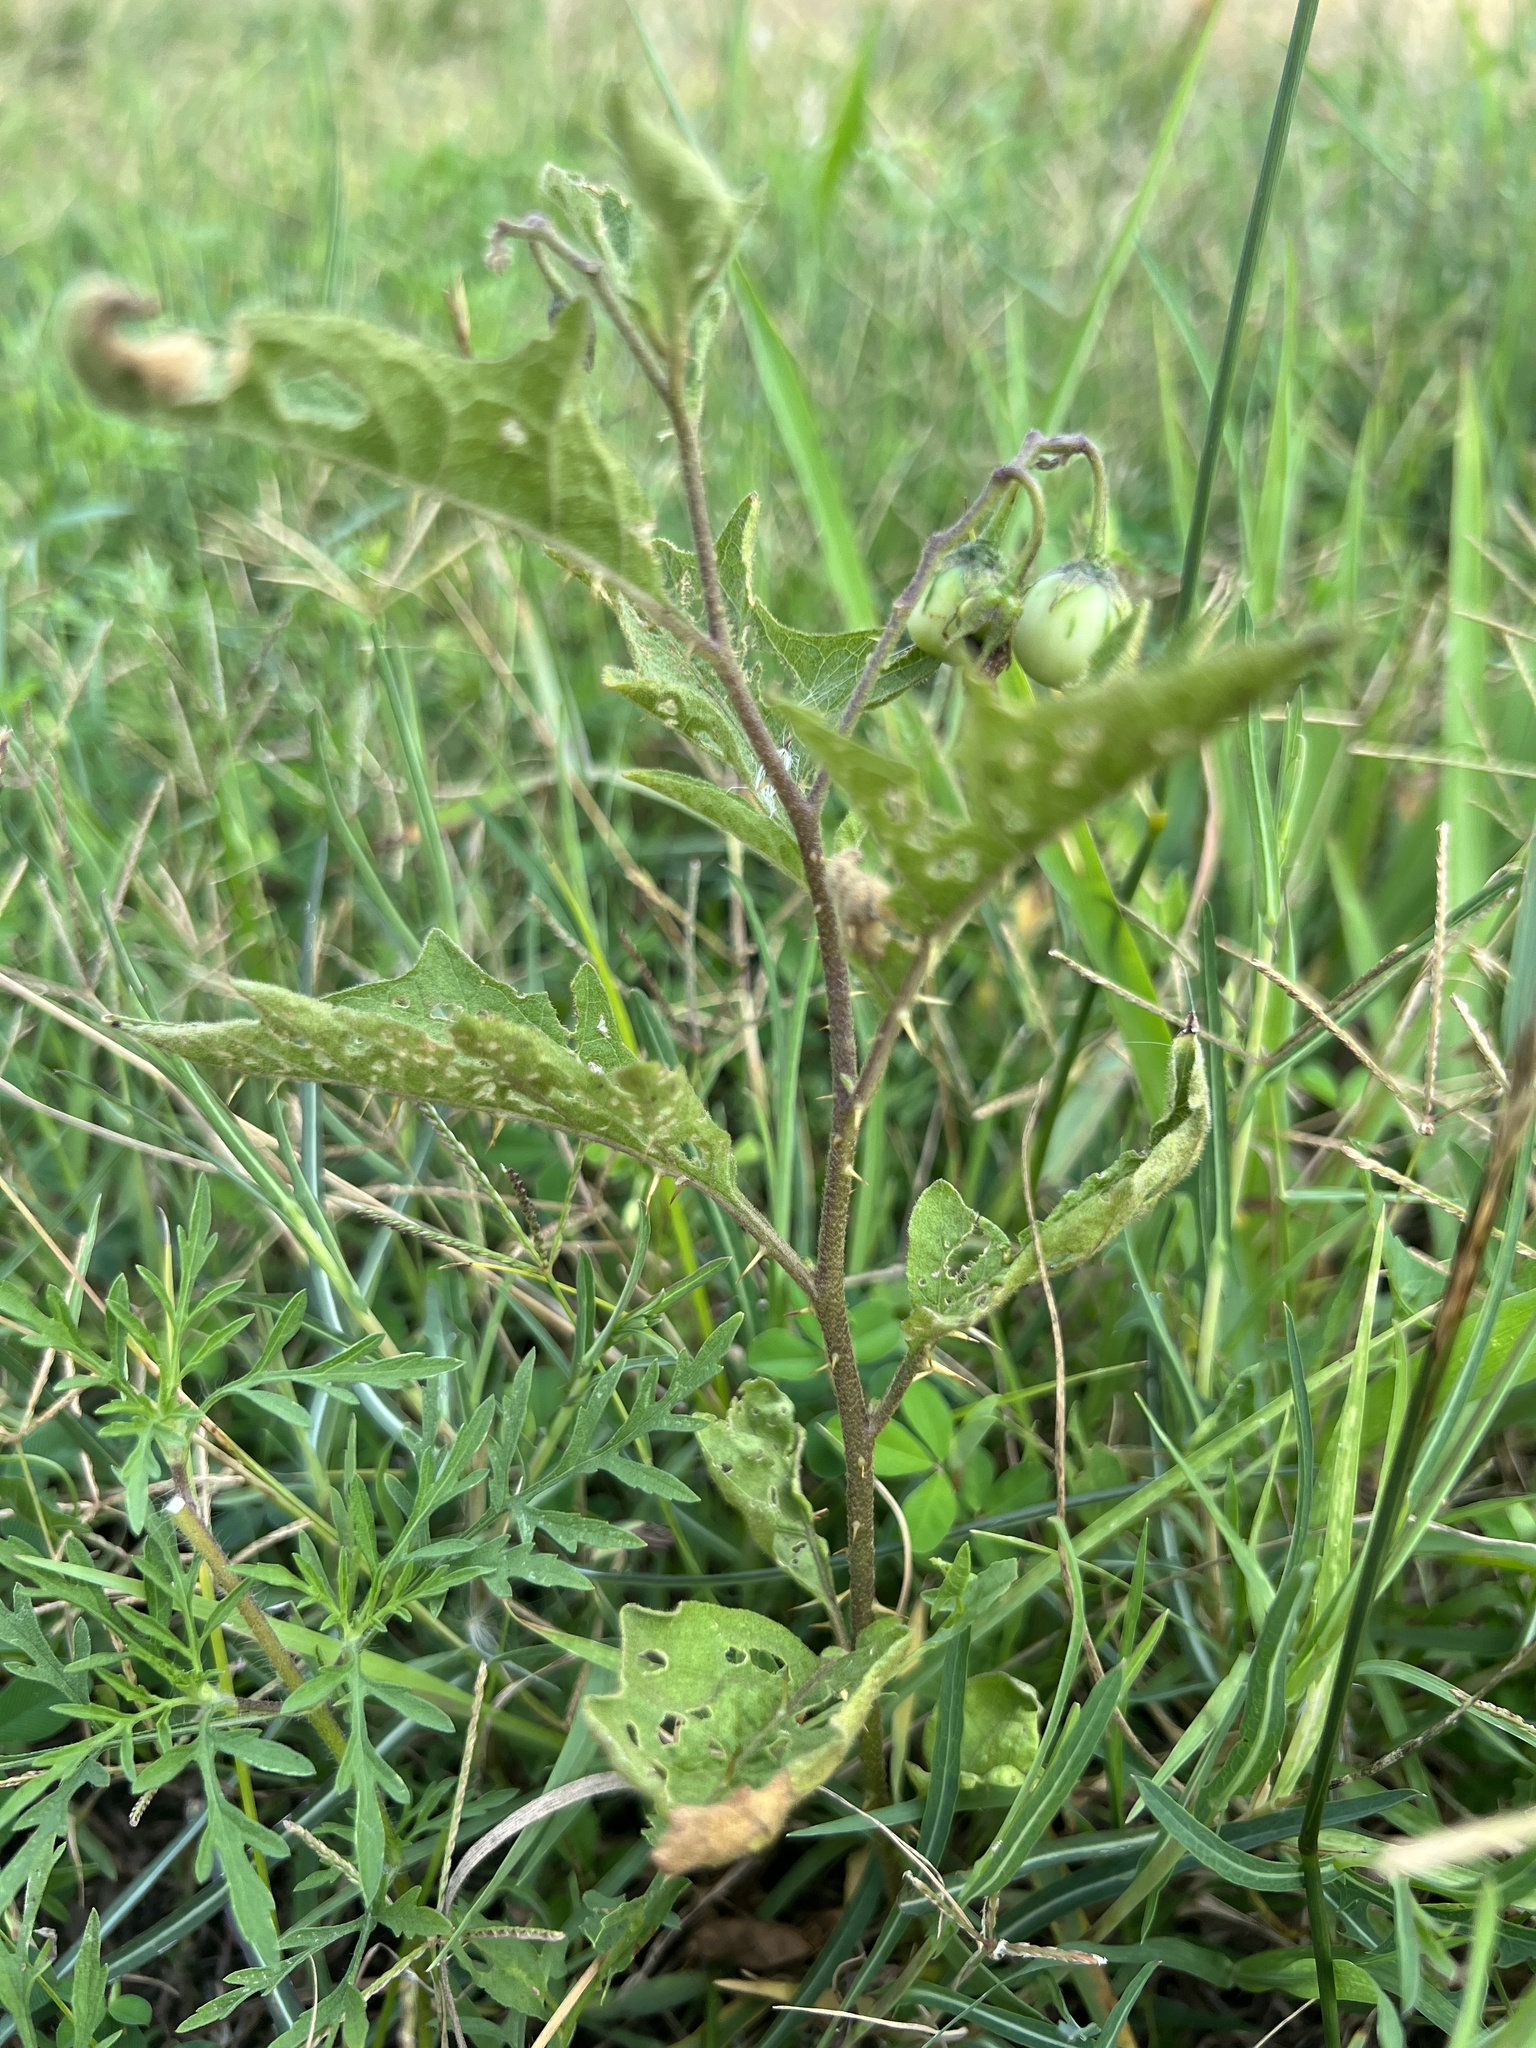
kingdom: Plantae
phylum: Tracheophyta
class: Magnoliopsida
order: Solanales
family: Solanaceae
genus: Solanum
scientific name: Solanum carolinense
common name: Horse-nettle
